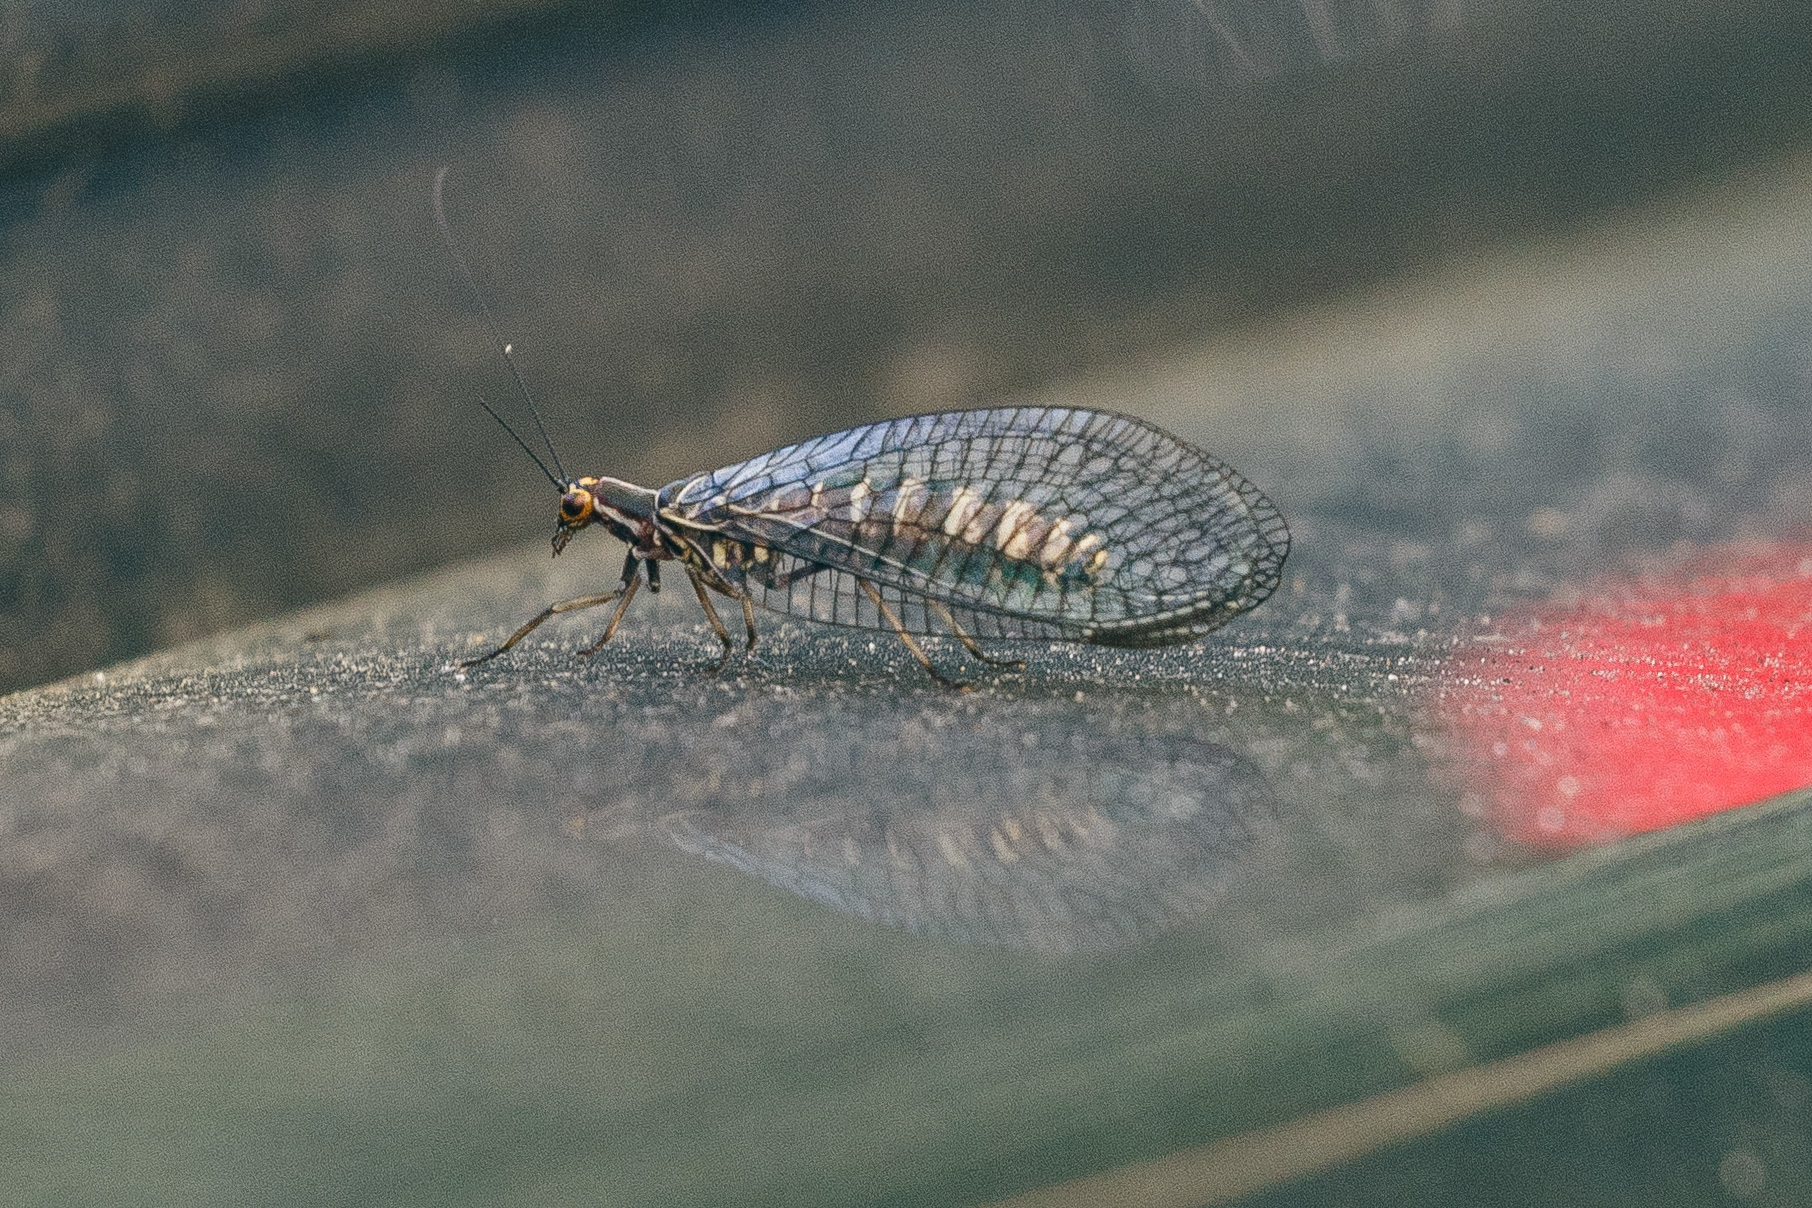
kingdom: Animalia
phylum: Arthropoda
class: Insecta
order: Neuroptera
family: Chrysopidae
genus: Nothochrysa
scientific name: Nothochrysa californica
